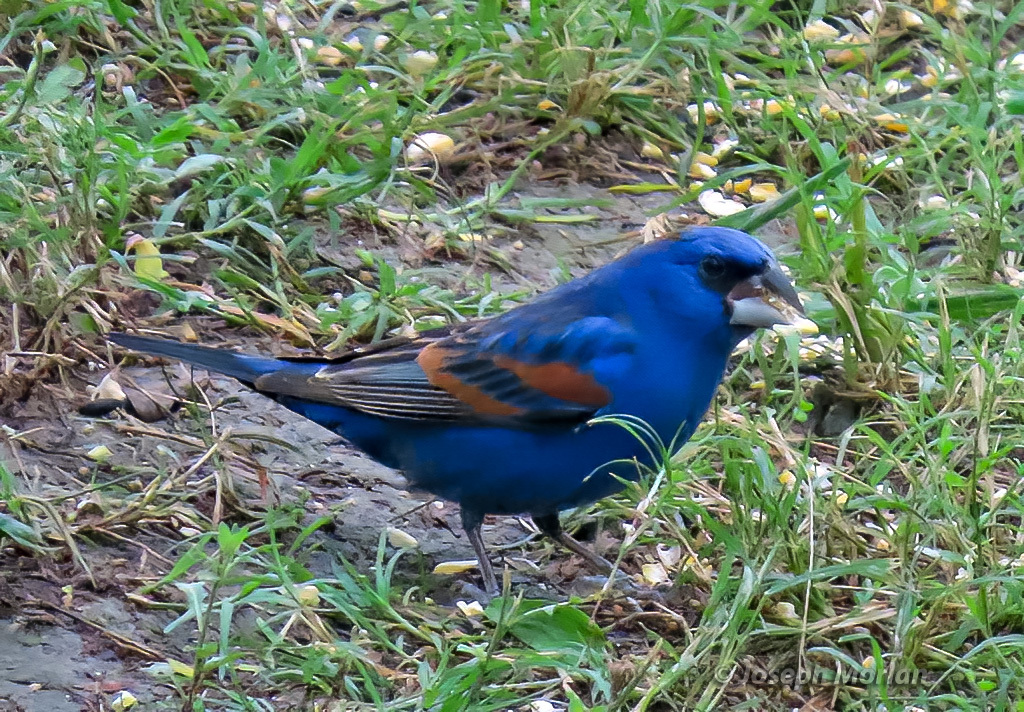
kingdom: Animalia
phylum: Chordata
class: Aves
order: Passeriformes
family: Cardinalidae
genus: Passerina
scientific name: Passerina caerulea
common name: Blue grosbeak
